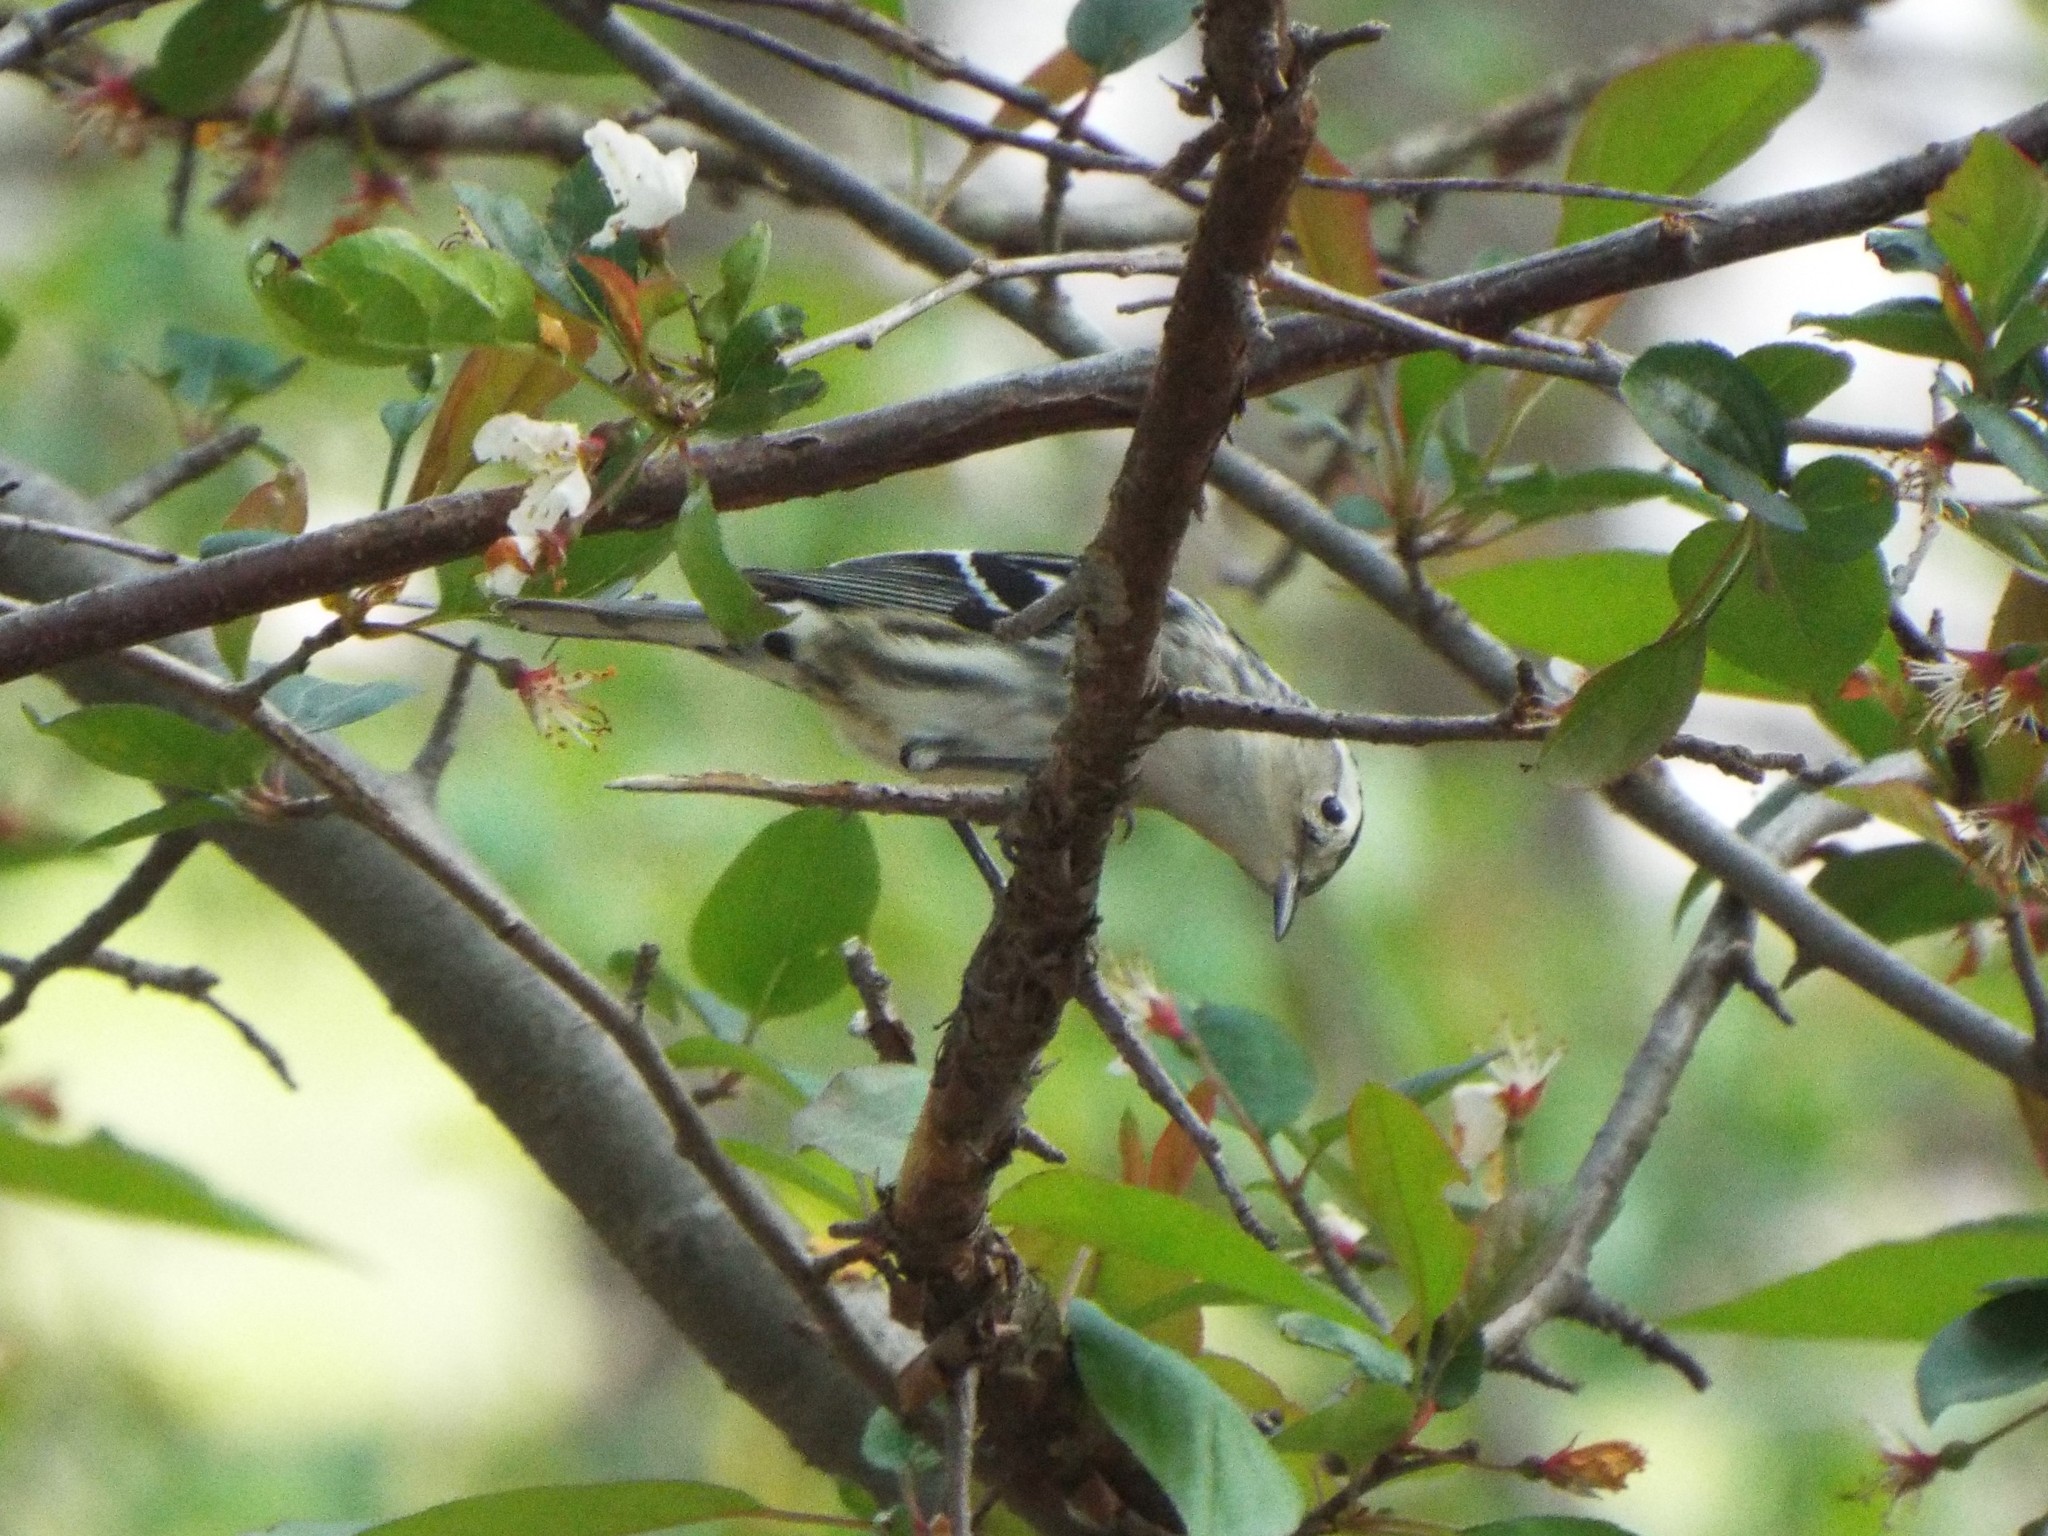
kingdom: Animalia
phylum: Chordata
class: Aves
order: Passeriformes
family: Parulidae
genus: Mniotilta
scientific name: Mniotilta varia
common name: Black-and-white warbler
